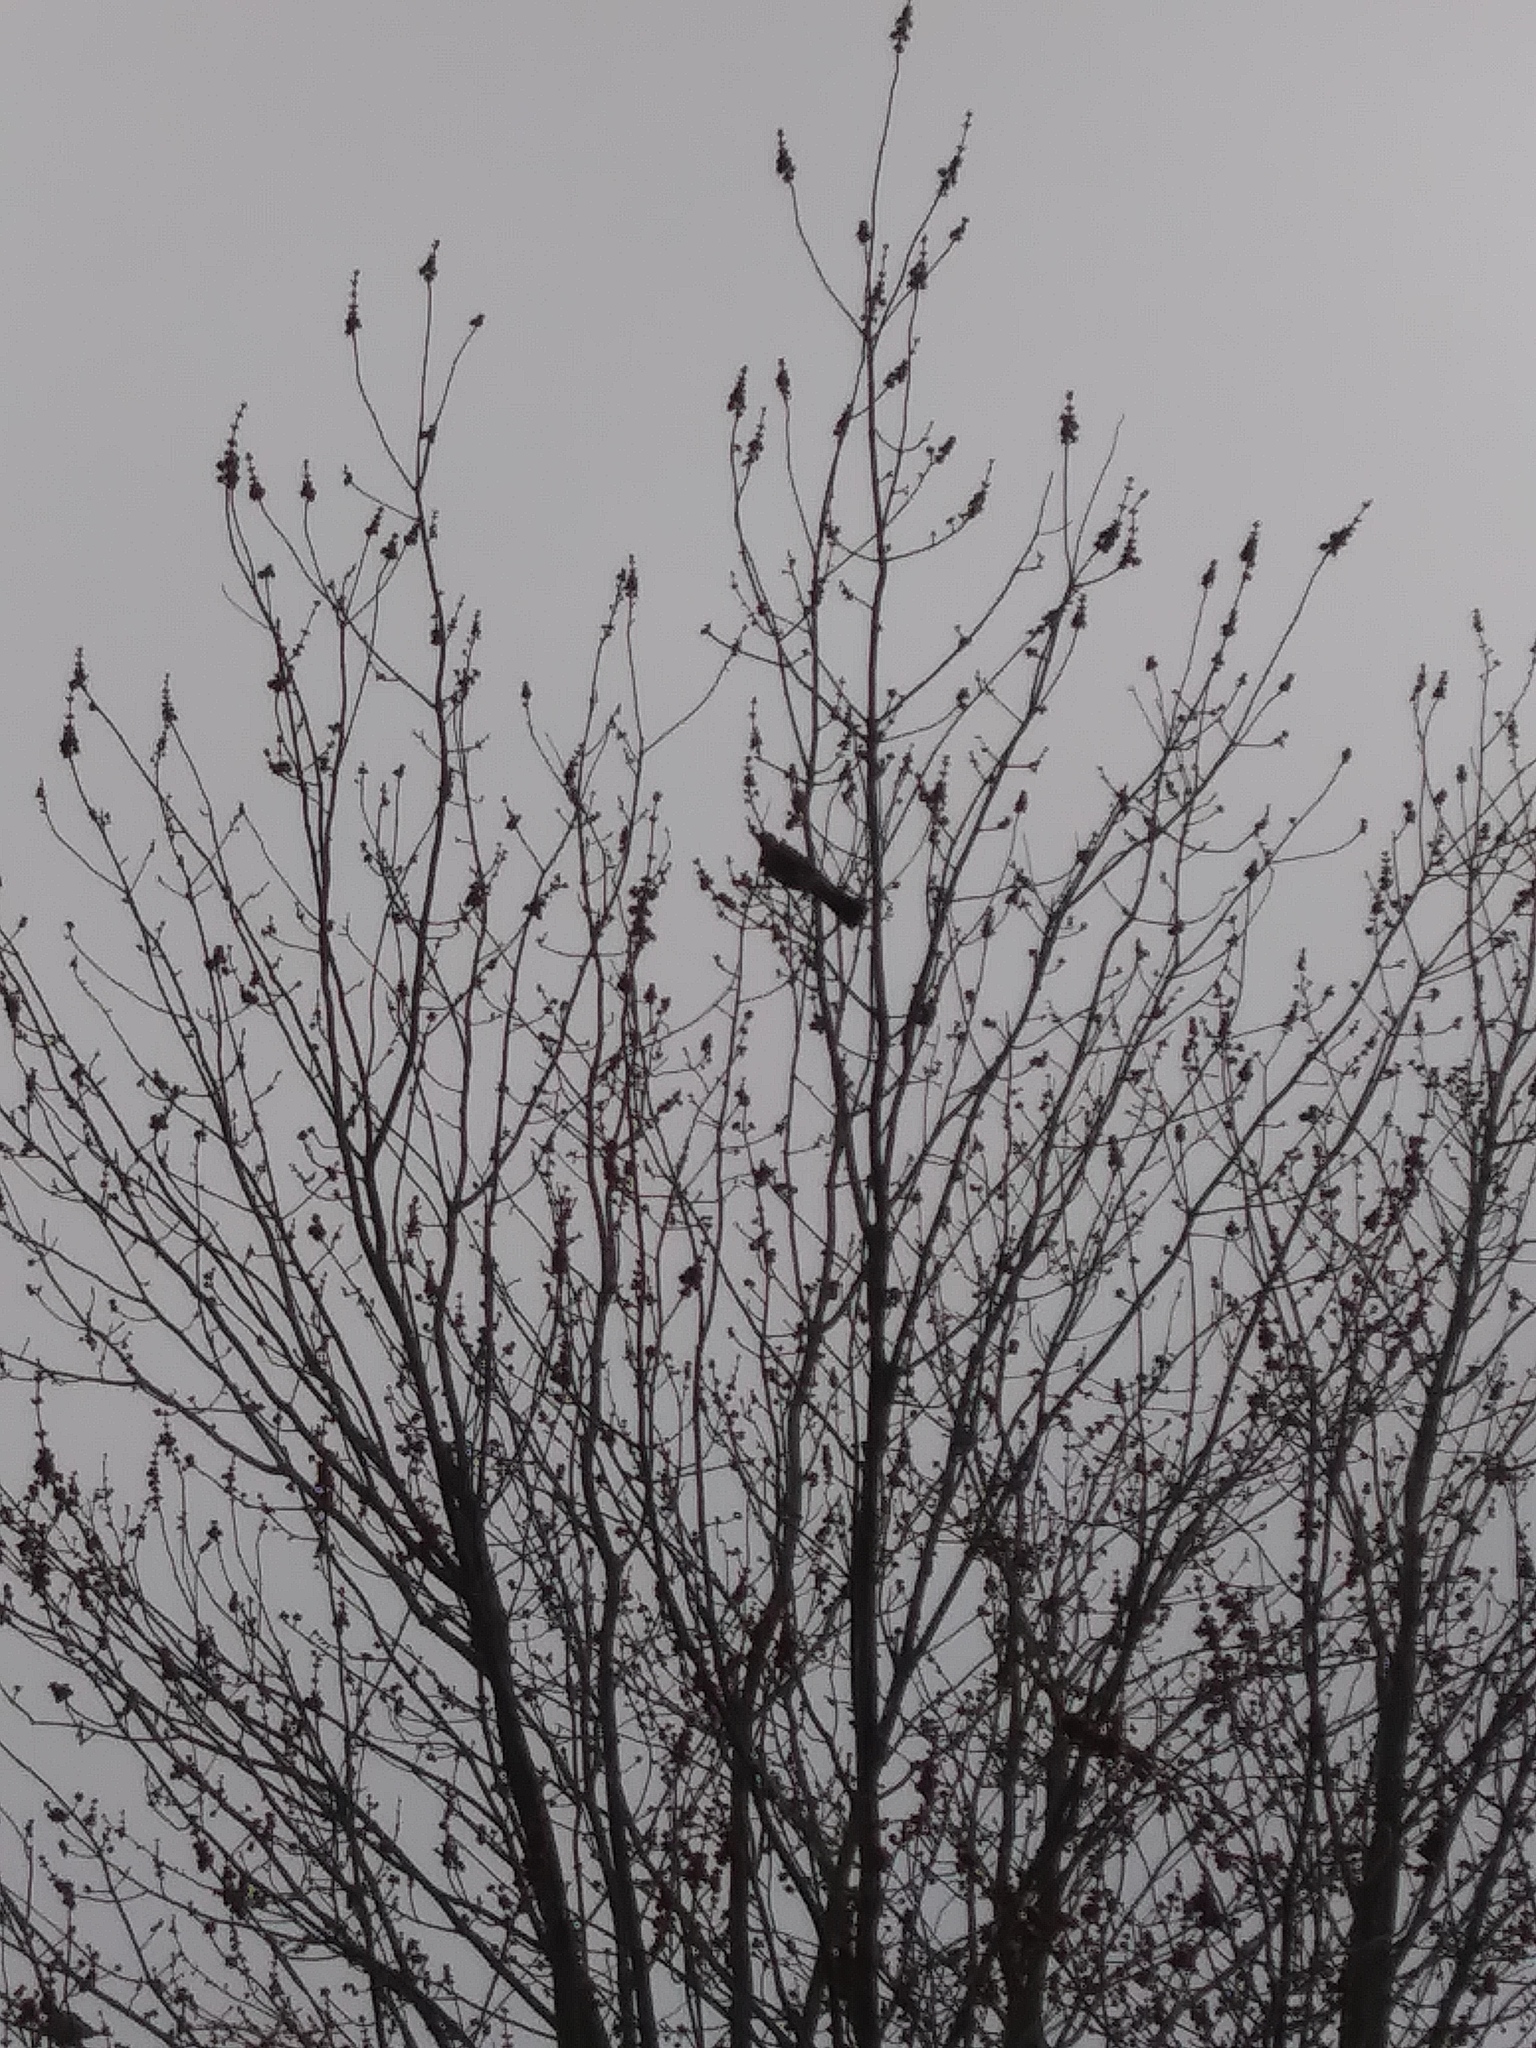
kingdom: Animalia
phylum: Chordata
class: Aves
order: Passeriformes
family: Turdidae
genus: Turdus
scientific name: Turdus migratorius
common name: American robin
